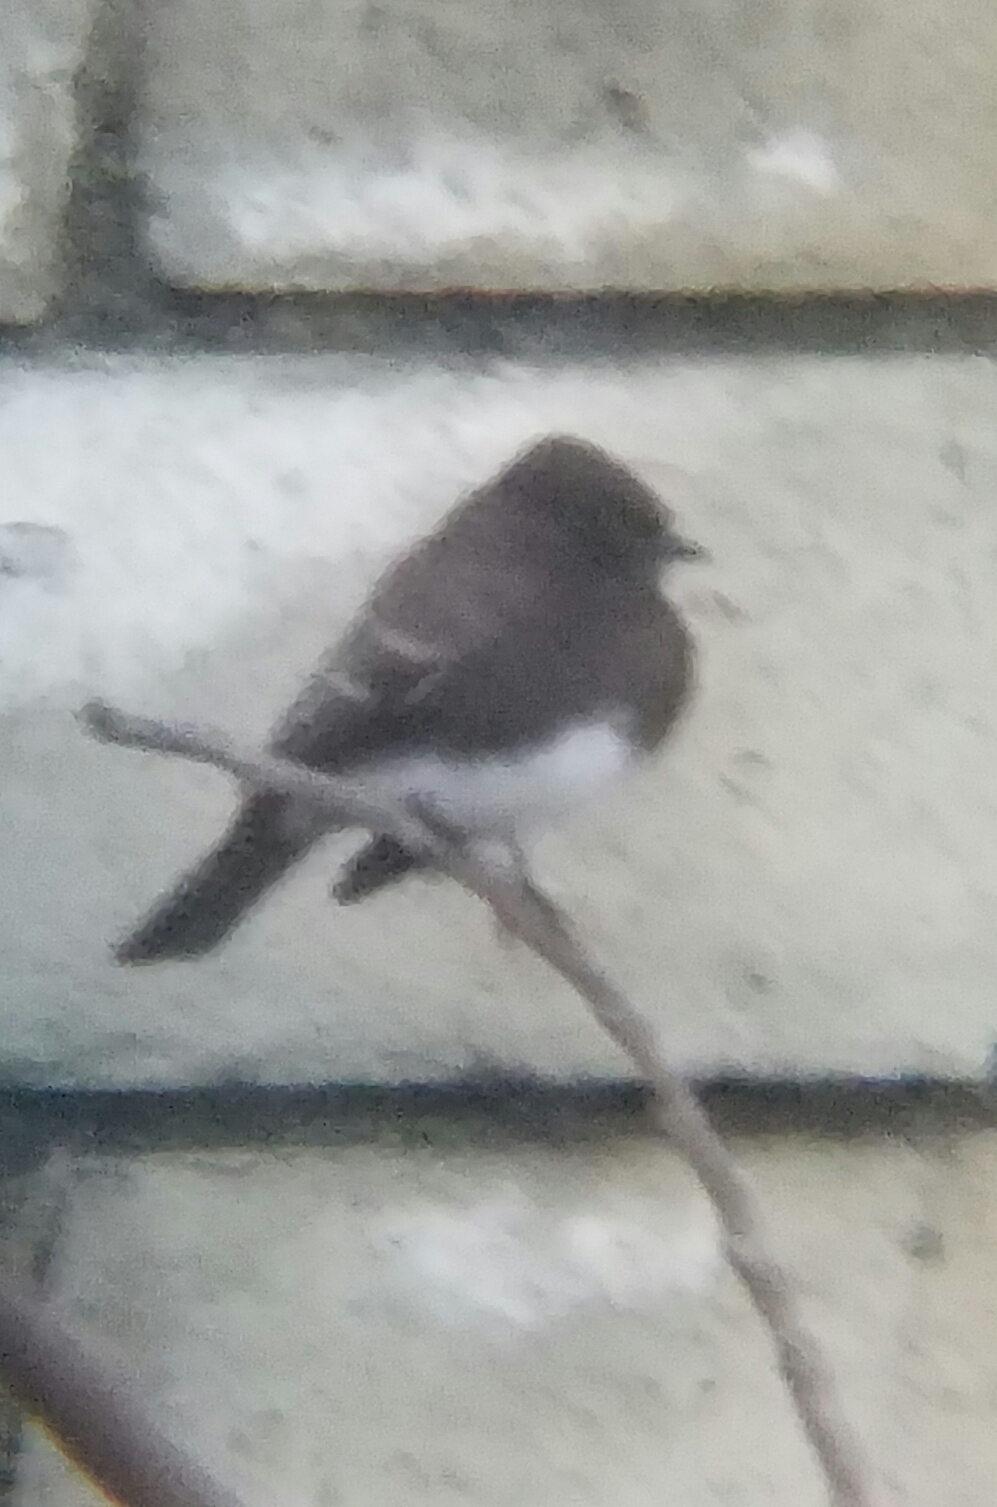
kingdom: Animalia
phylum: Chordata
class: Aves
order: Passeriformes
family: Tyrannidae
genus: Sayornis
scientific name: Sayornis nigricans
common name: Black phoebe
